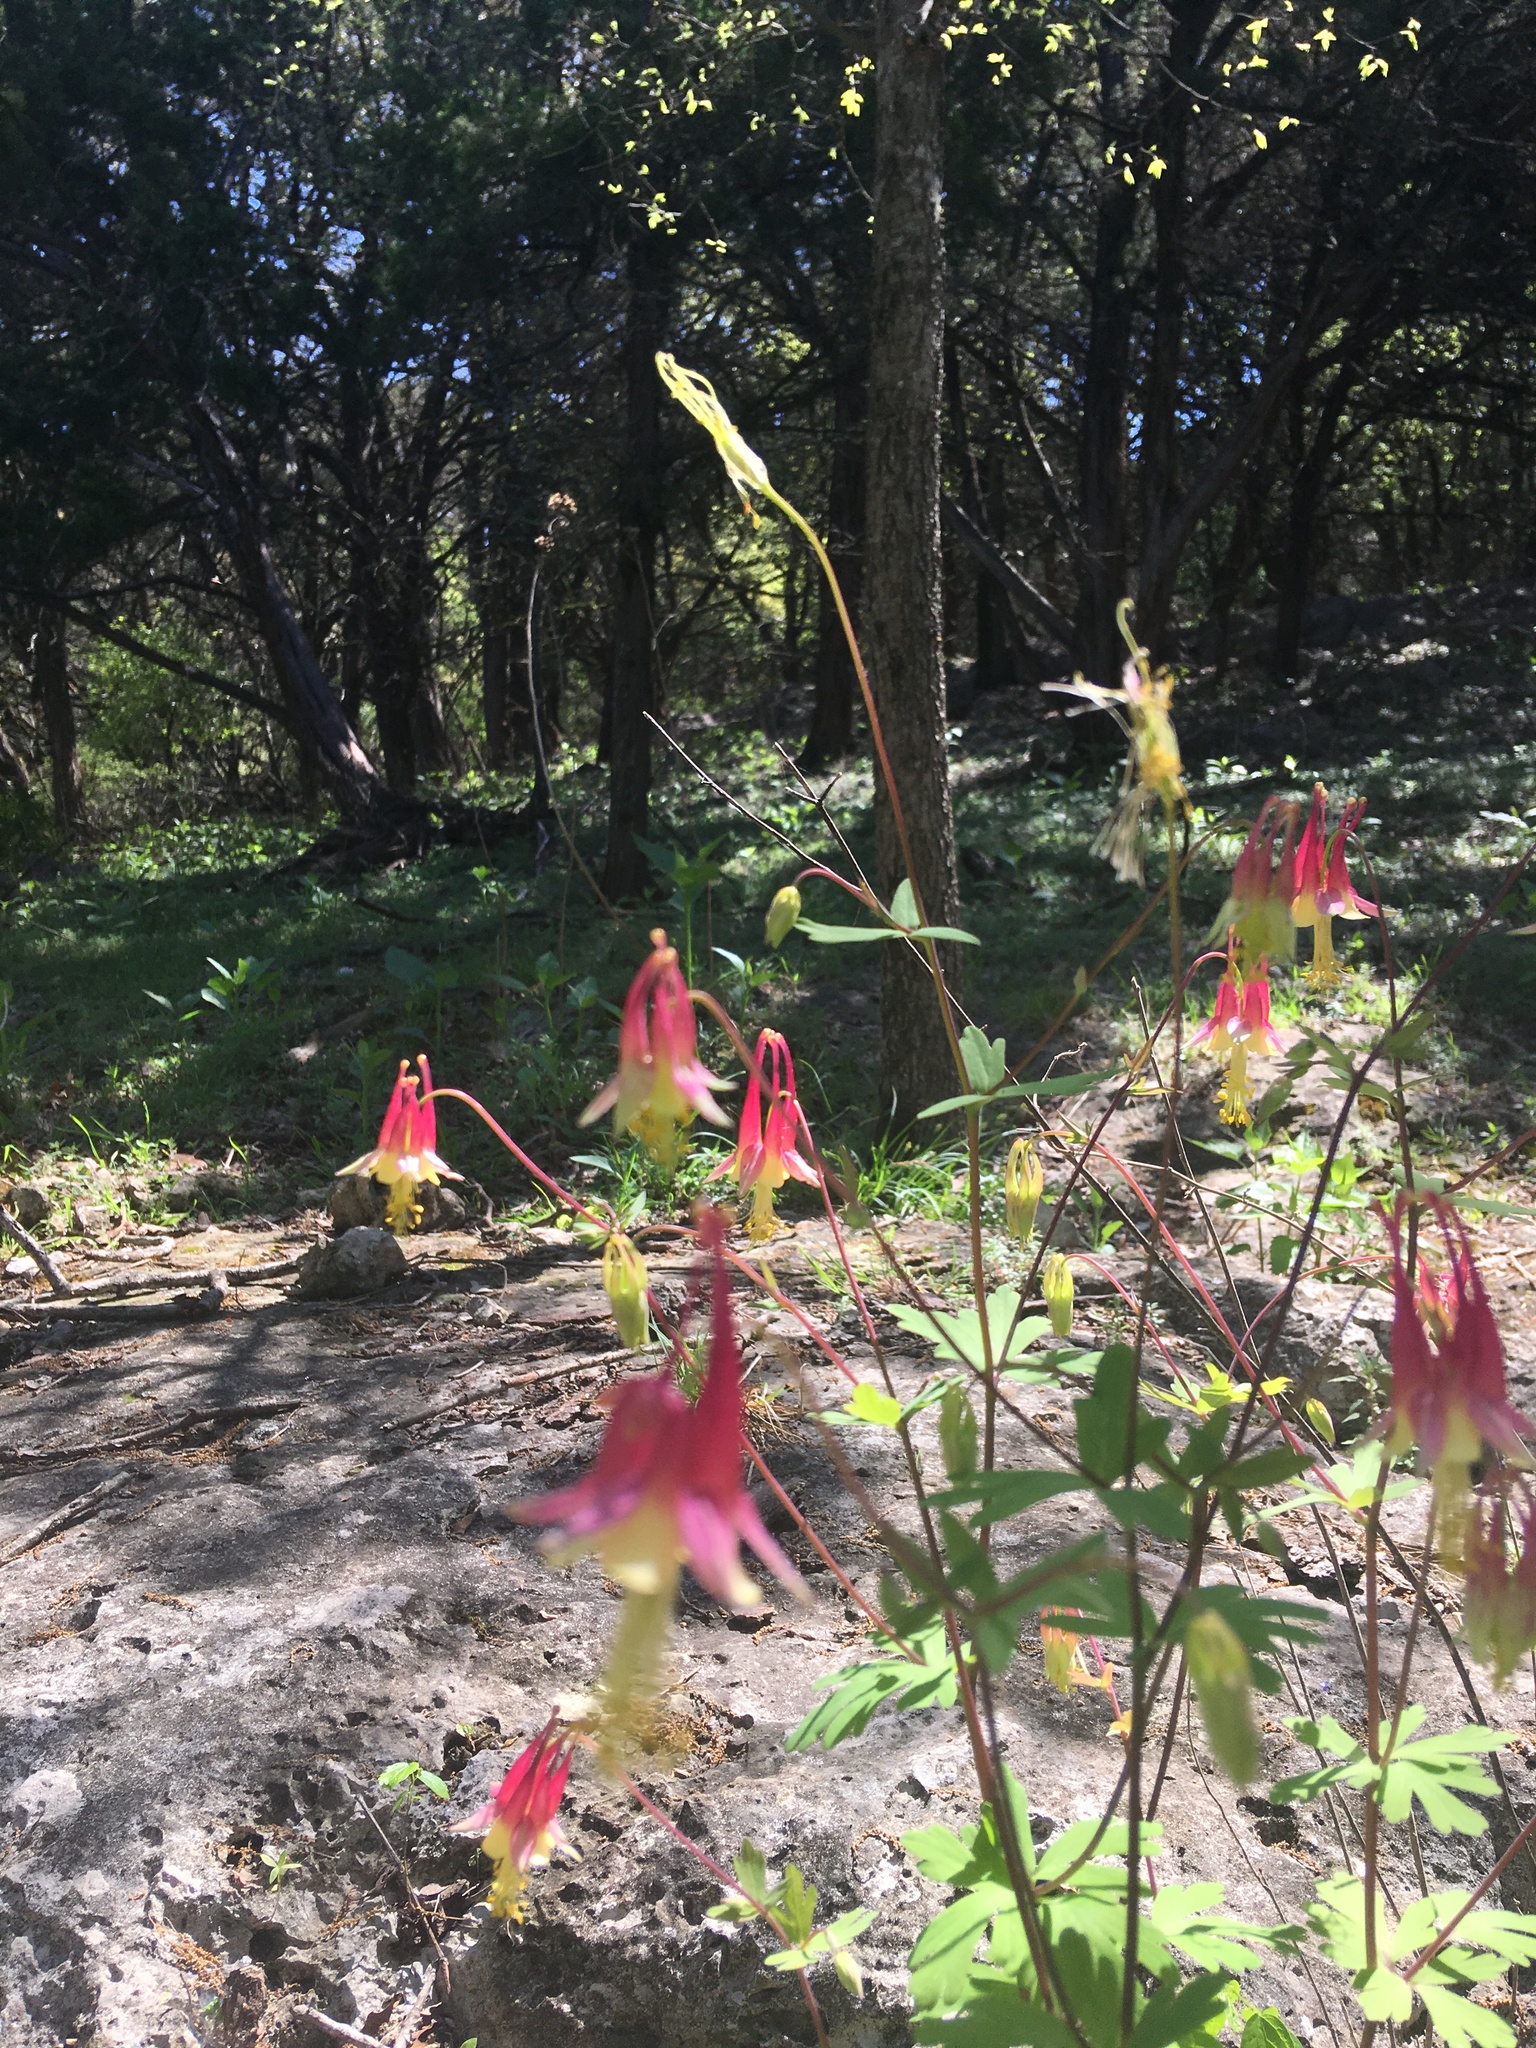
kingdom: Plantae
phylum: Tracheophyta
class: Magnoliopsida
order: Ranunculales
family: Ranunculaceae
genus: Aquilegia
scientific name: Aquilegia canadensis
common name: American columbine
